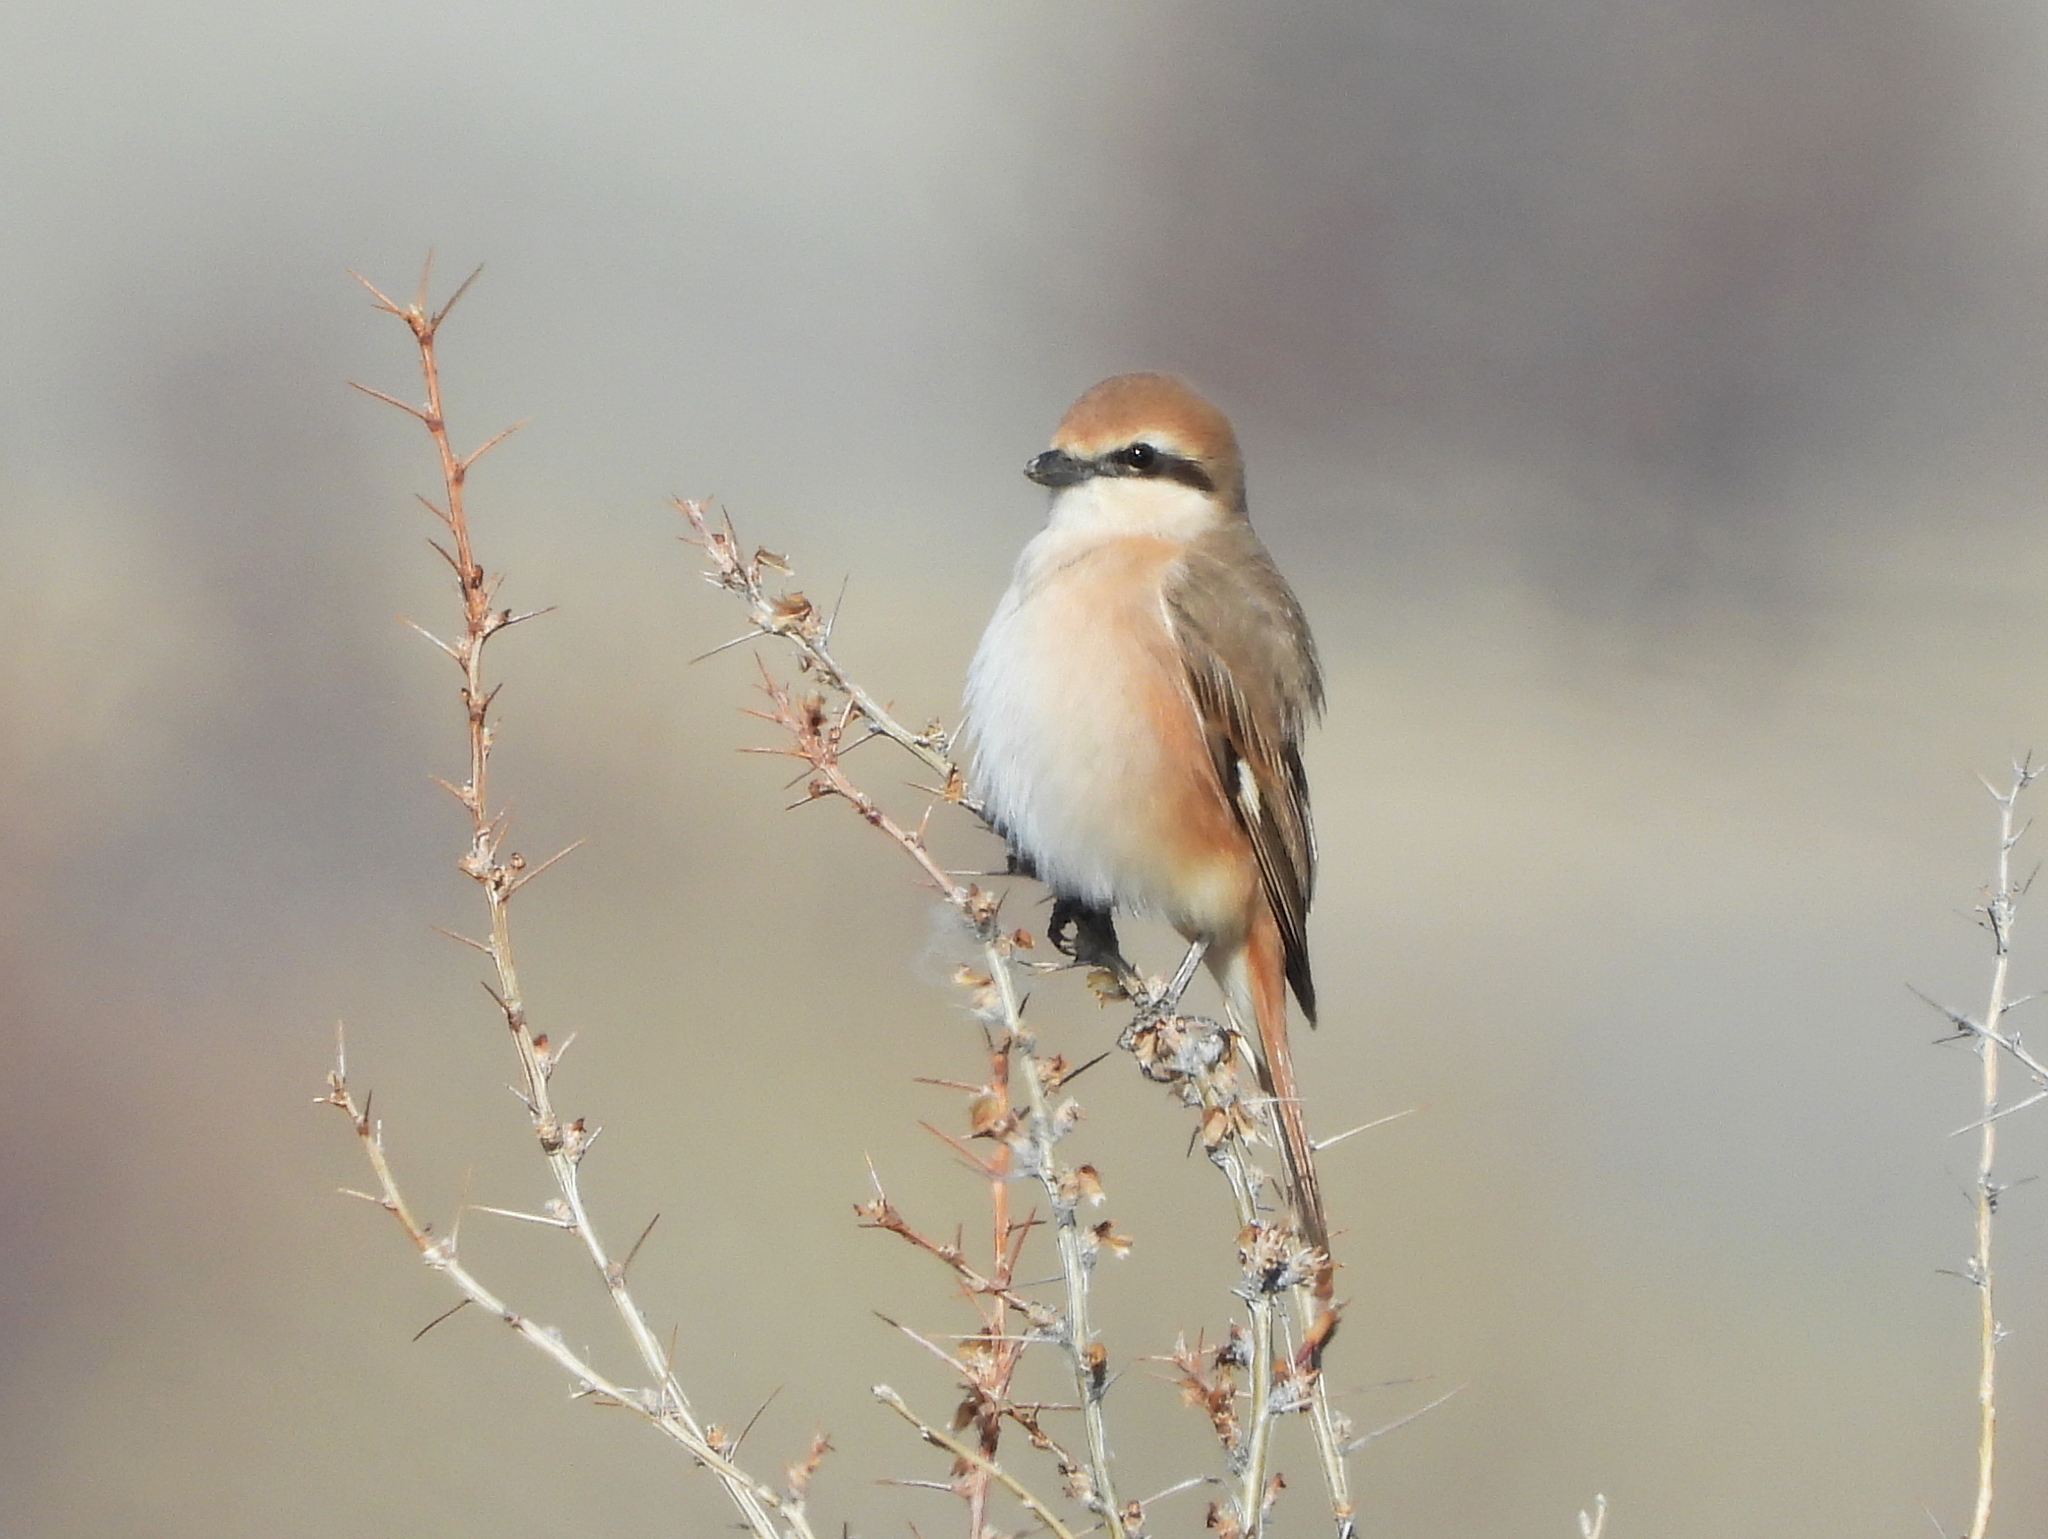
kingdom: Animalia
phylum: Chordata
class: Aves
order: Passeriformes
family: Laniidae
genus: Lanius
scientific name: Lanius isabellinus
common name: Isabelline shrike
